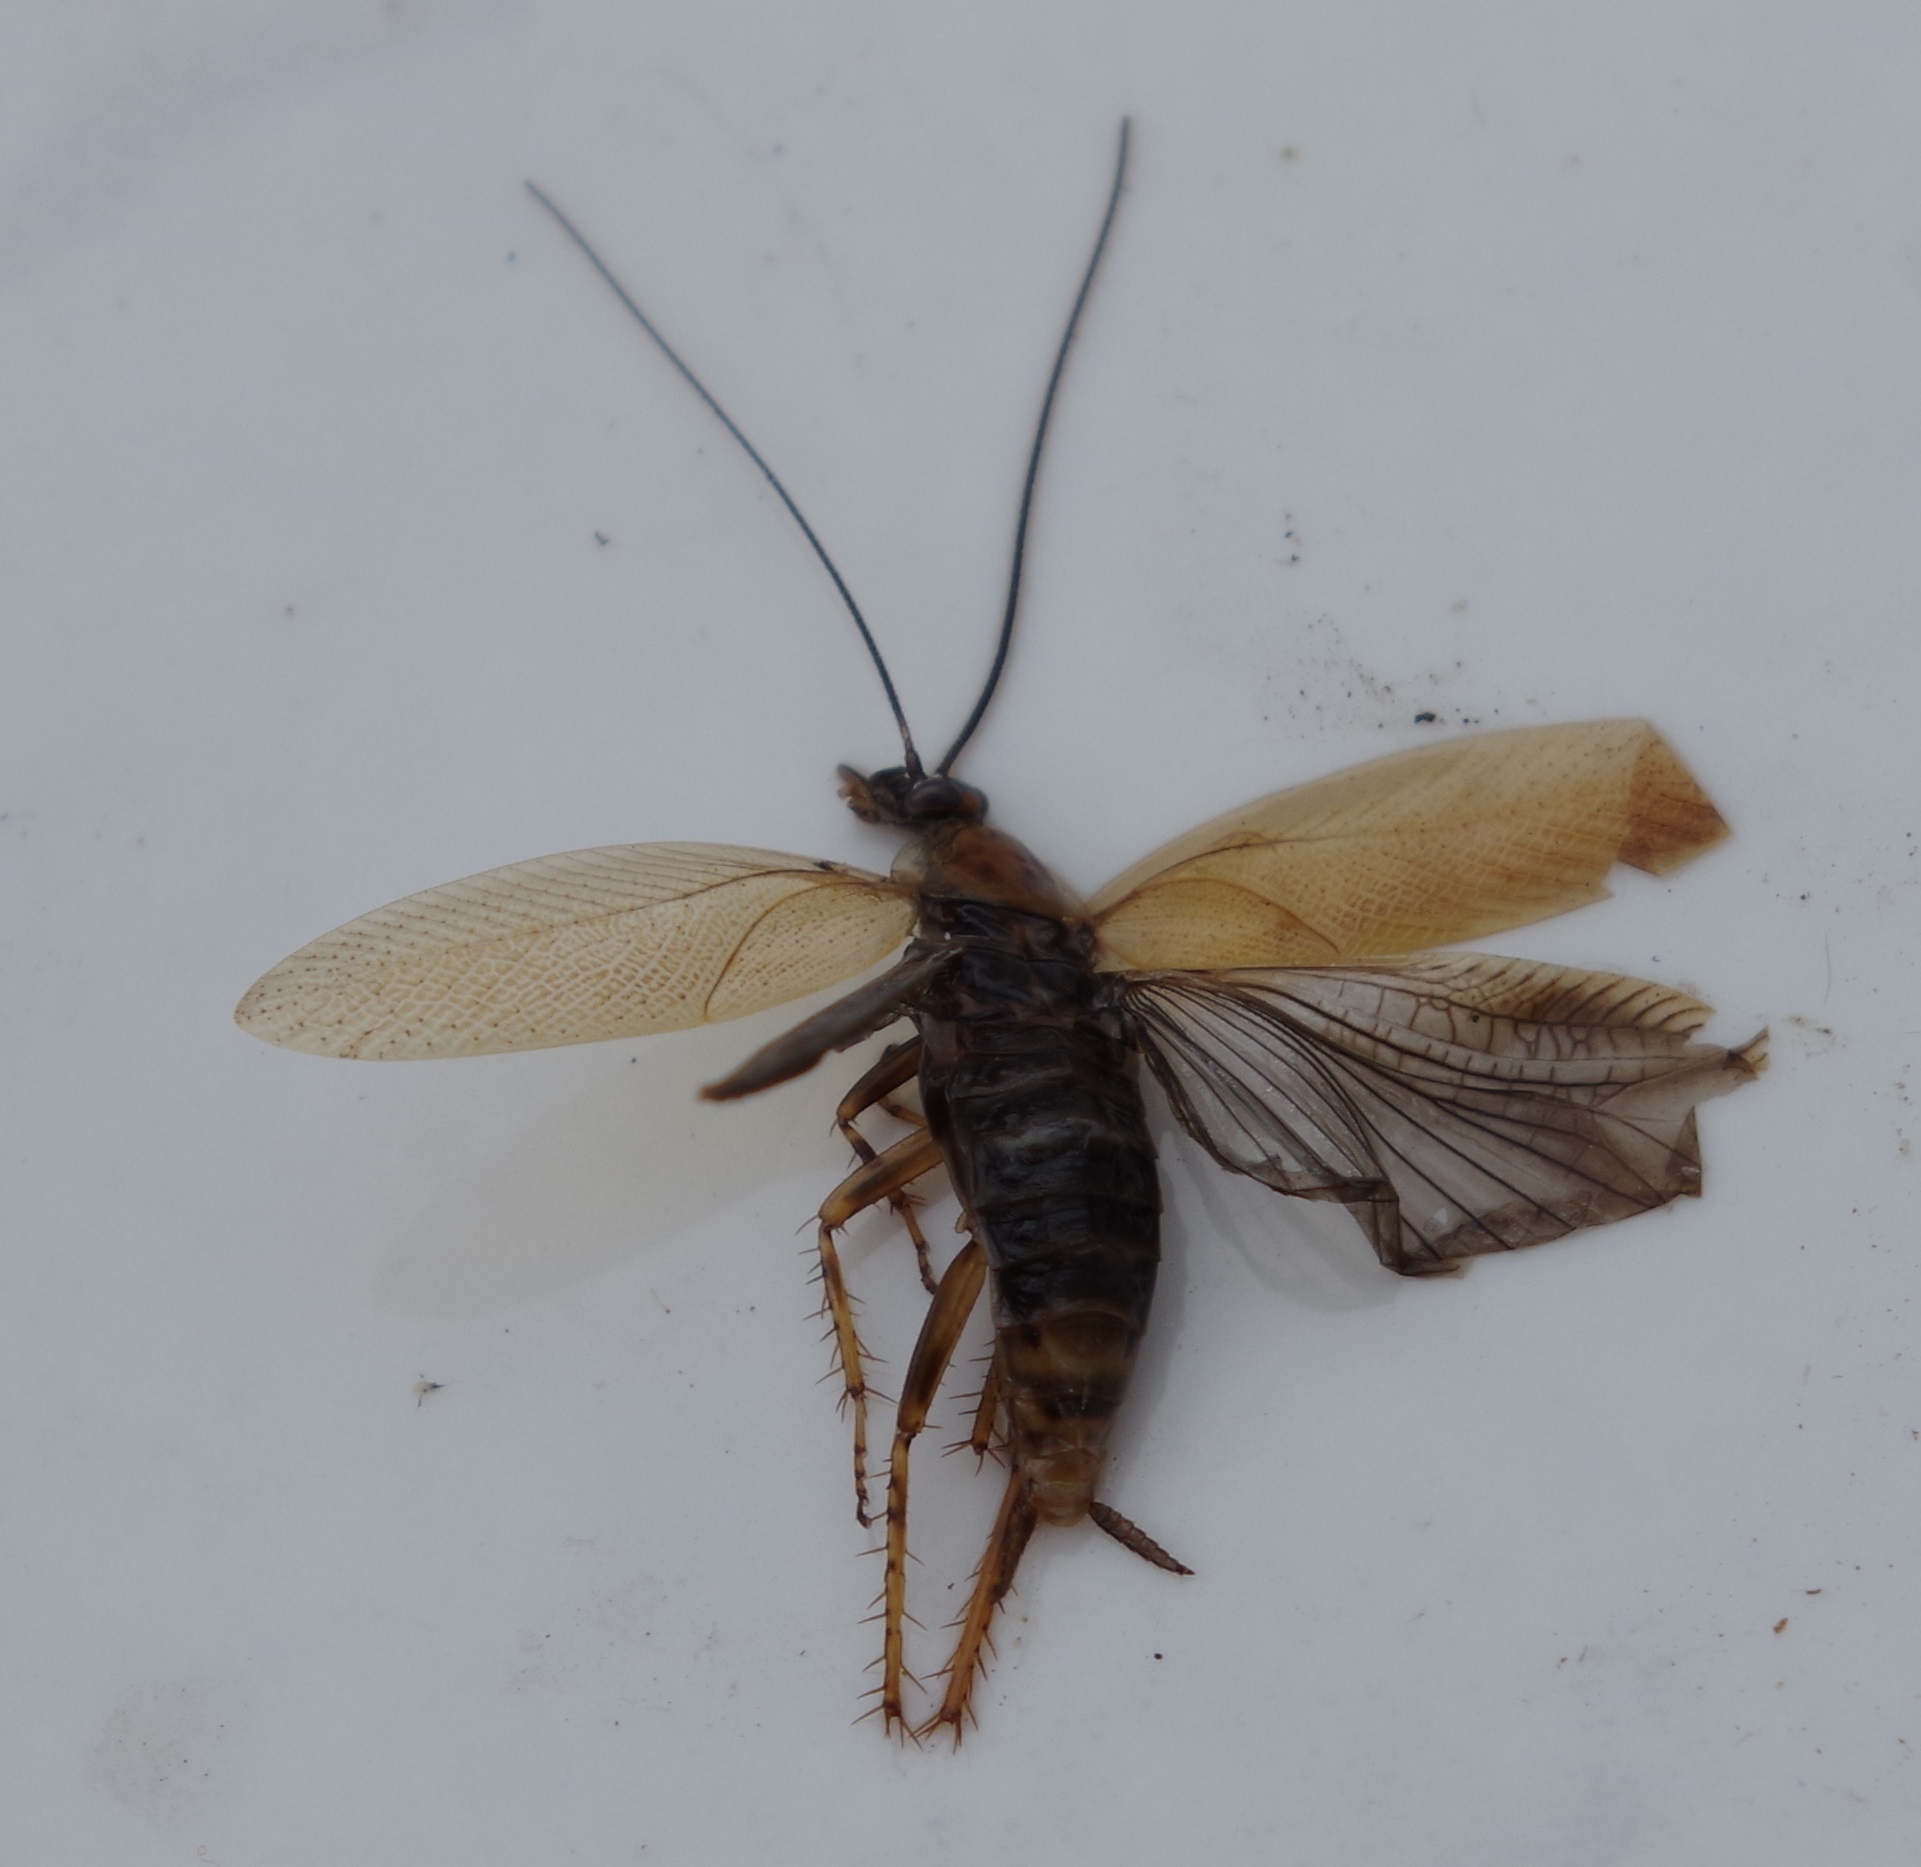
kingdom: Animalia
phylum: Arthropoda
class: Insecta
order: Blattodea
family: Ectobiidae
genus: Ectobius
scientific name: Ectobius vittiventris
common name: Garden cockroach
